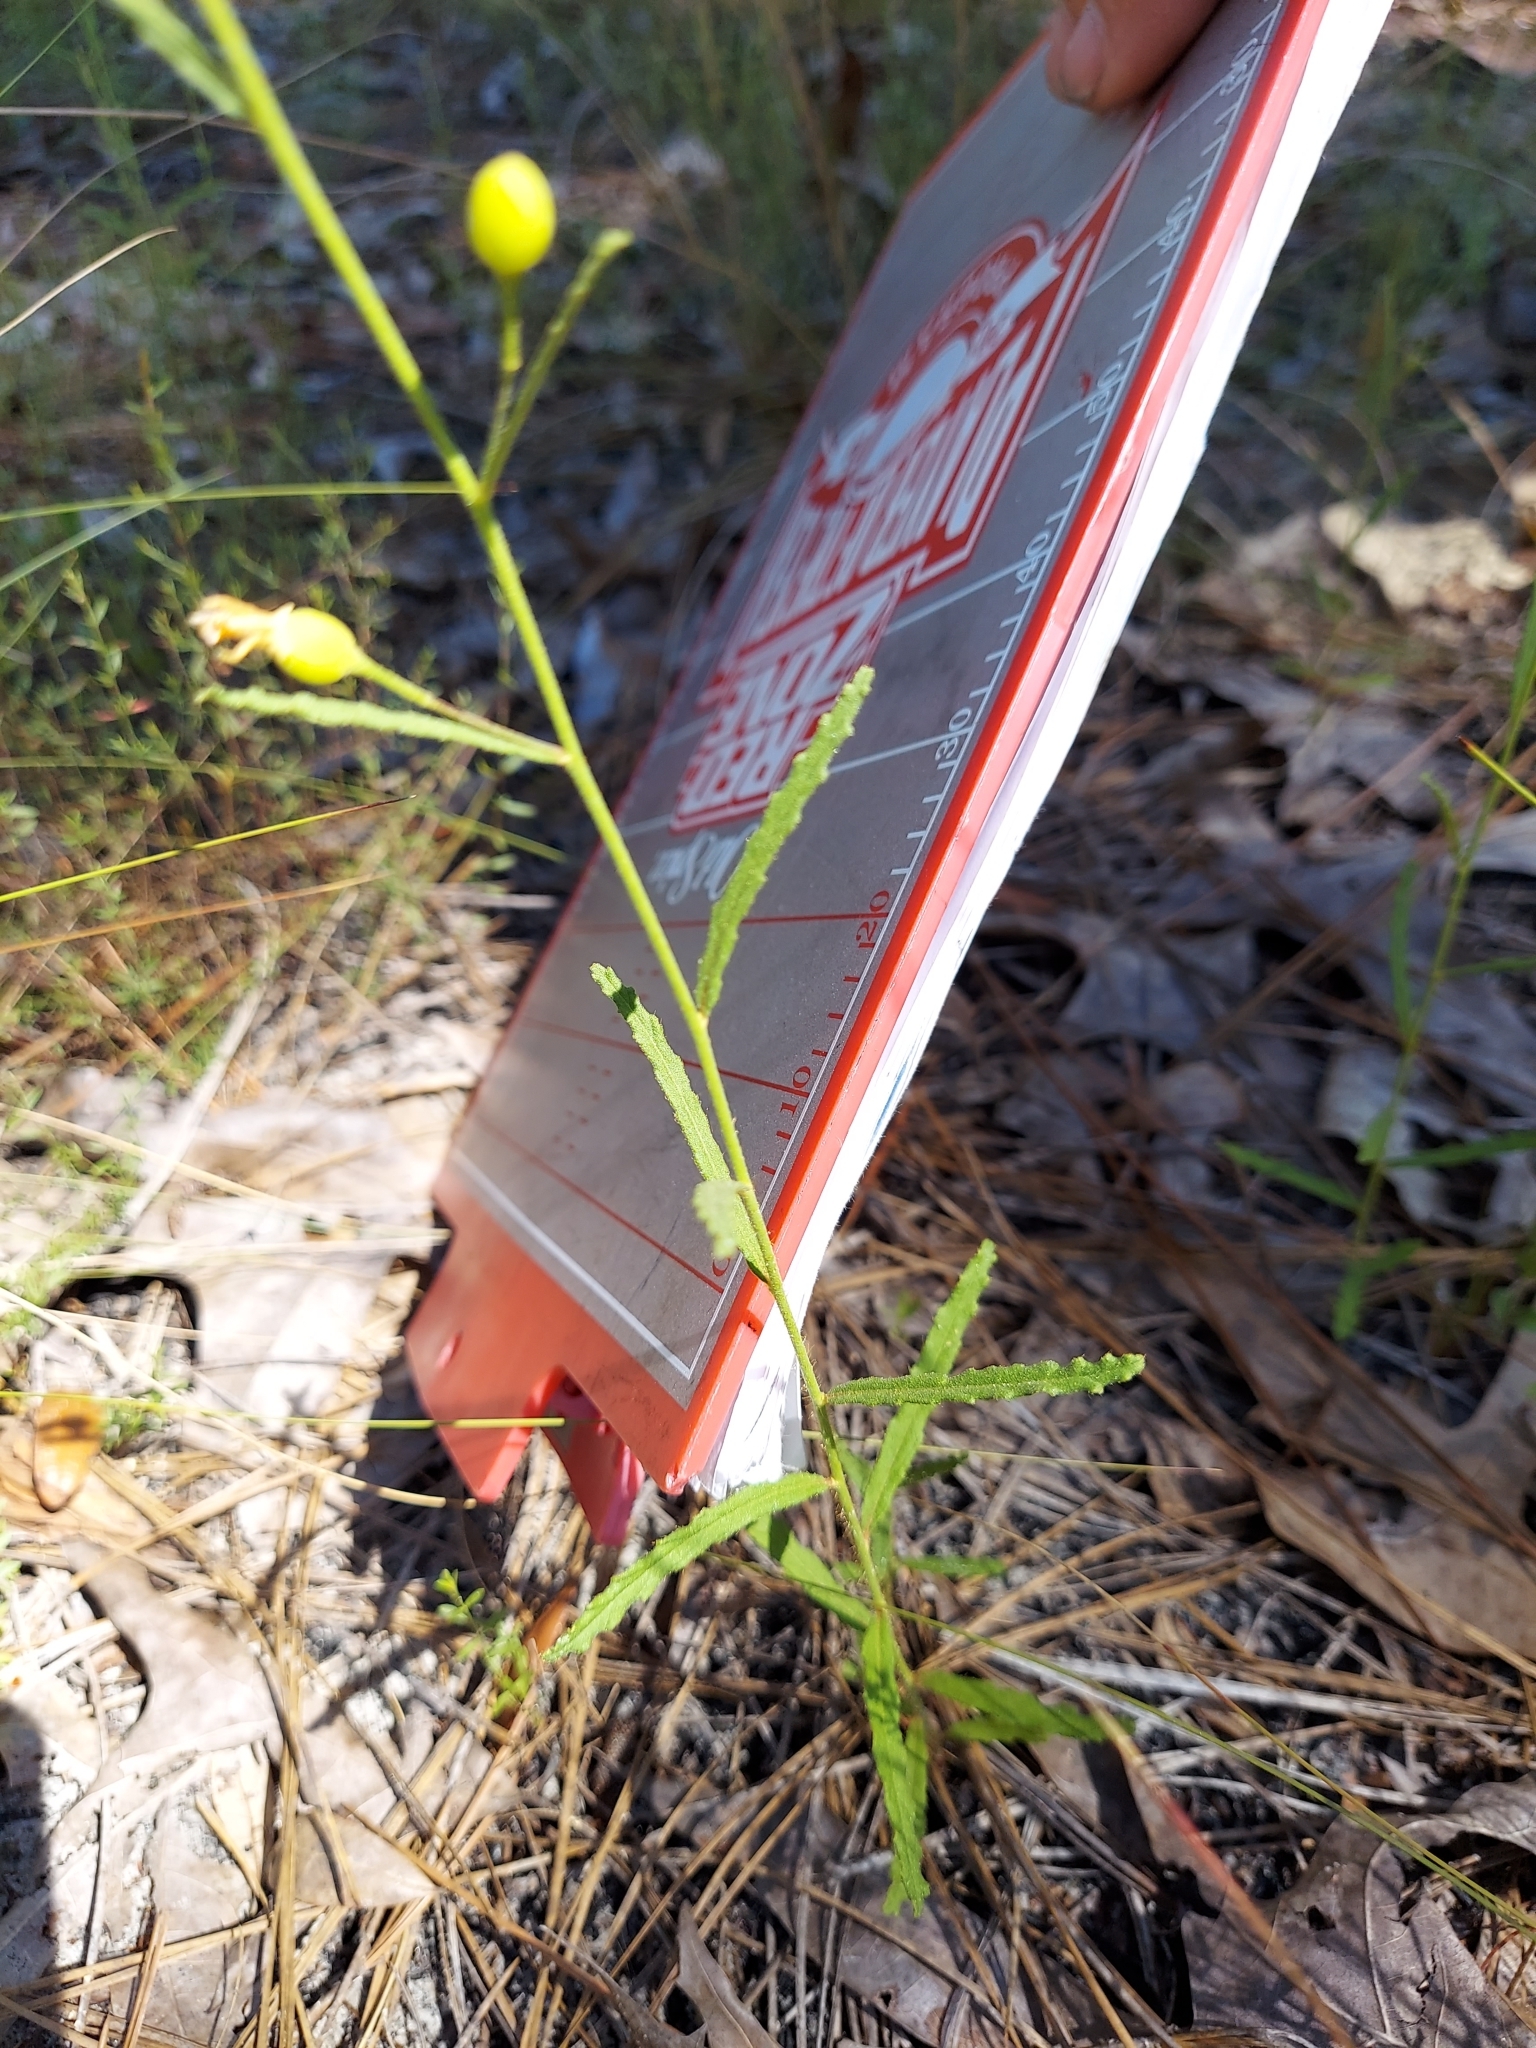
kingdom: Plantae
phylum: Tracheophyta
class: Magnoliopsida
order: Malpighiales
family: Turneraceae
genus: Piriqueta
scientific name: Piriqueta cistoides
